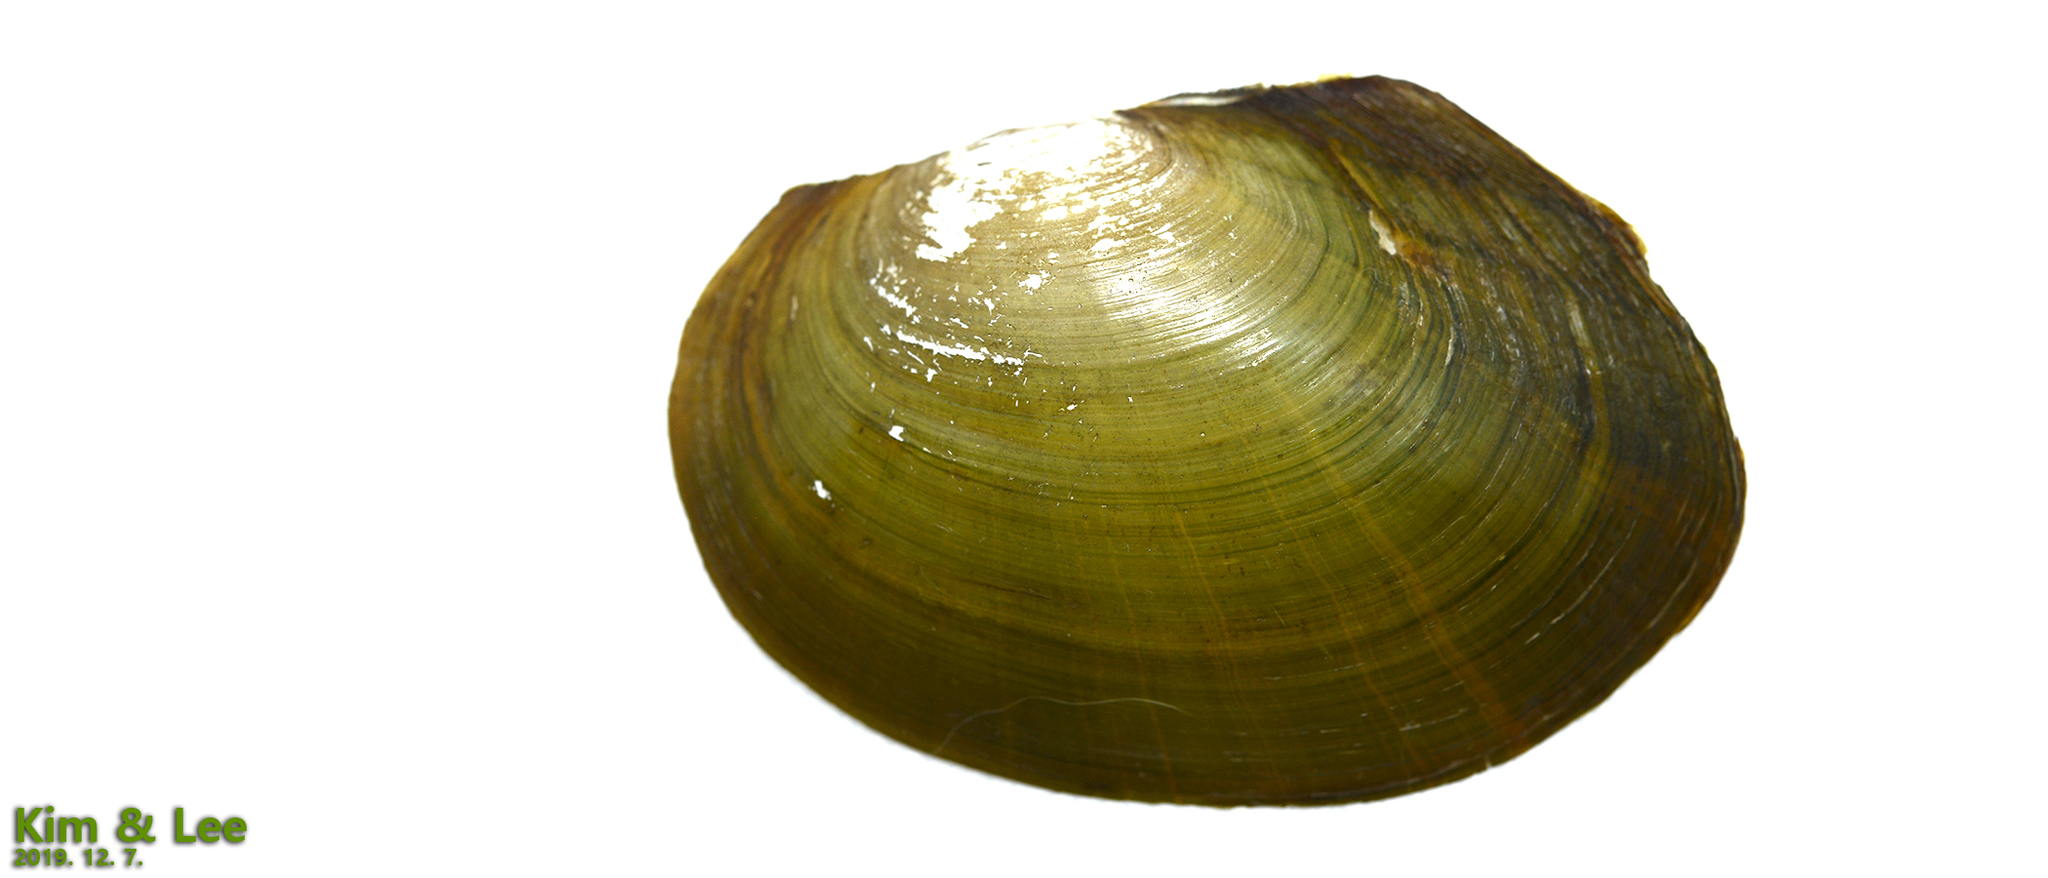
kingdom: Animalia
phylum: Mollusca
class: Bivalvia
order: Unionida
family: Unionidae
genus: Sinanodonta
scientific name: Sinanodonta lauta
